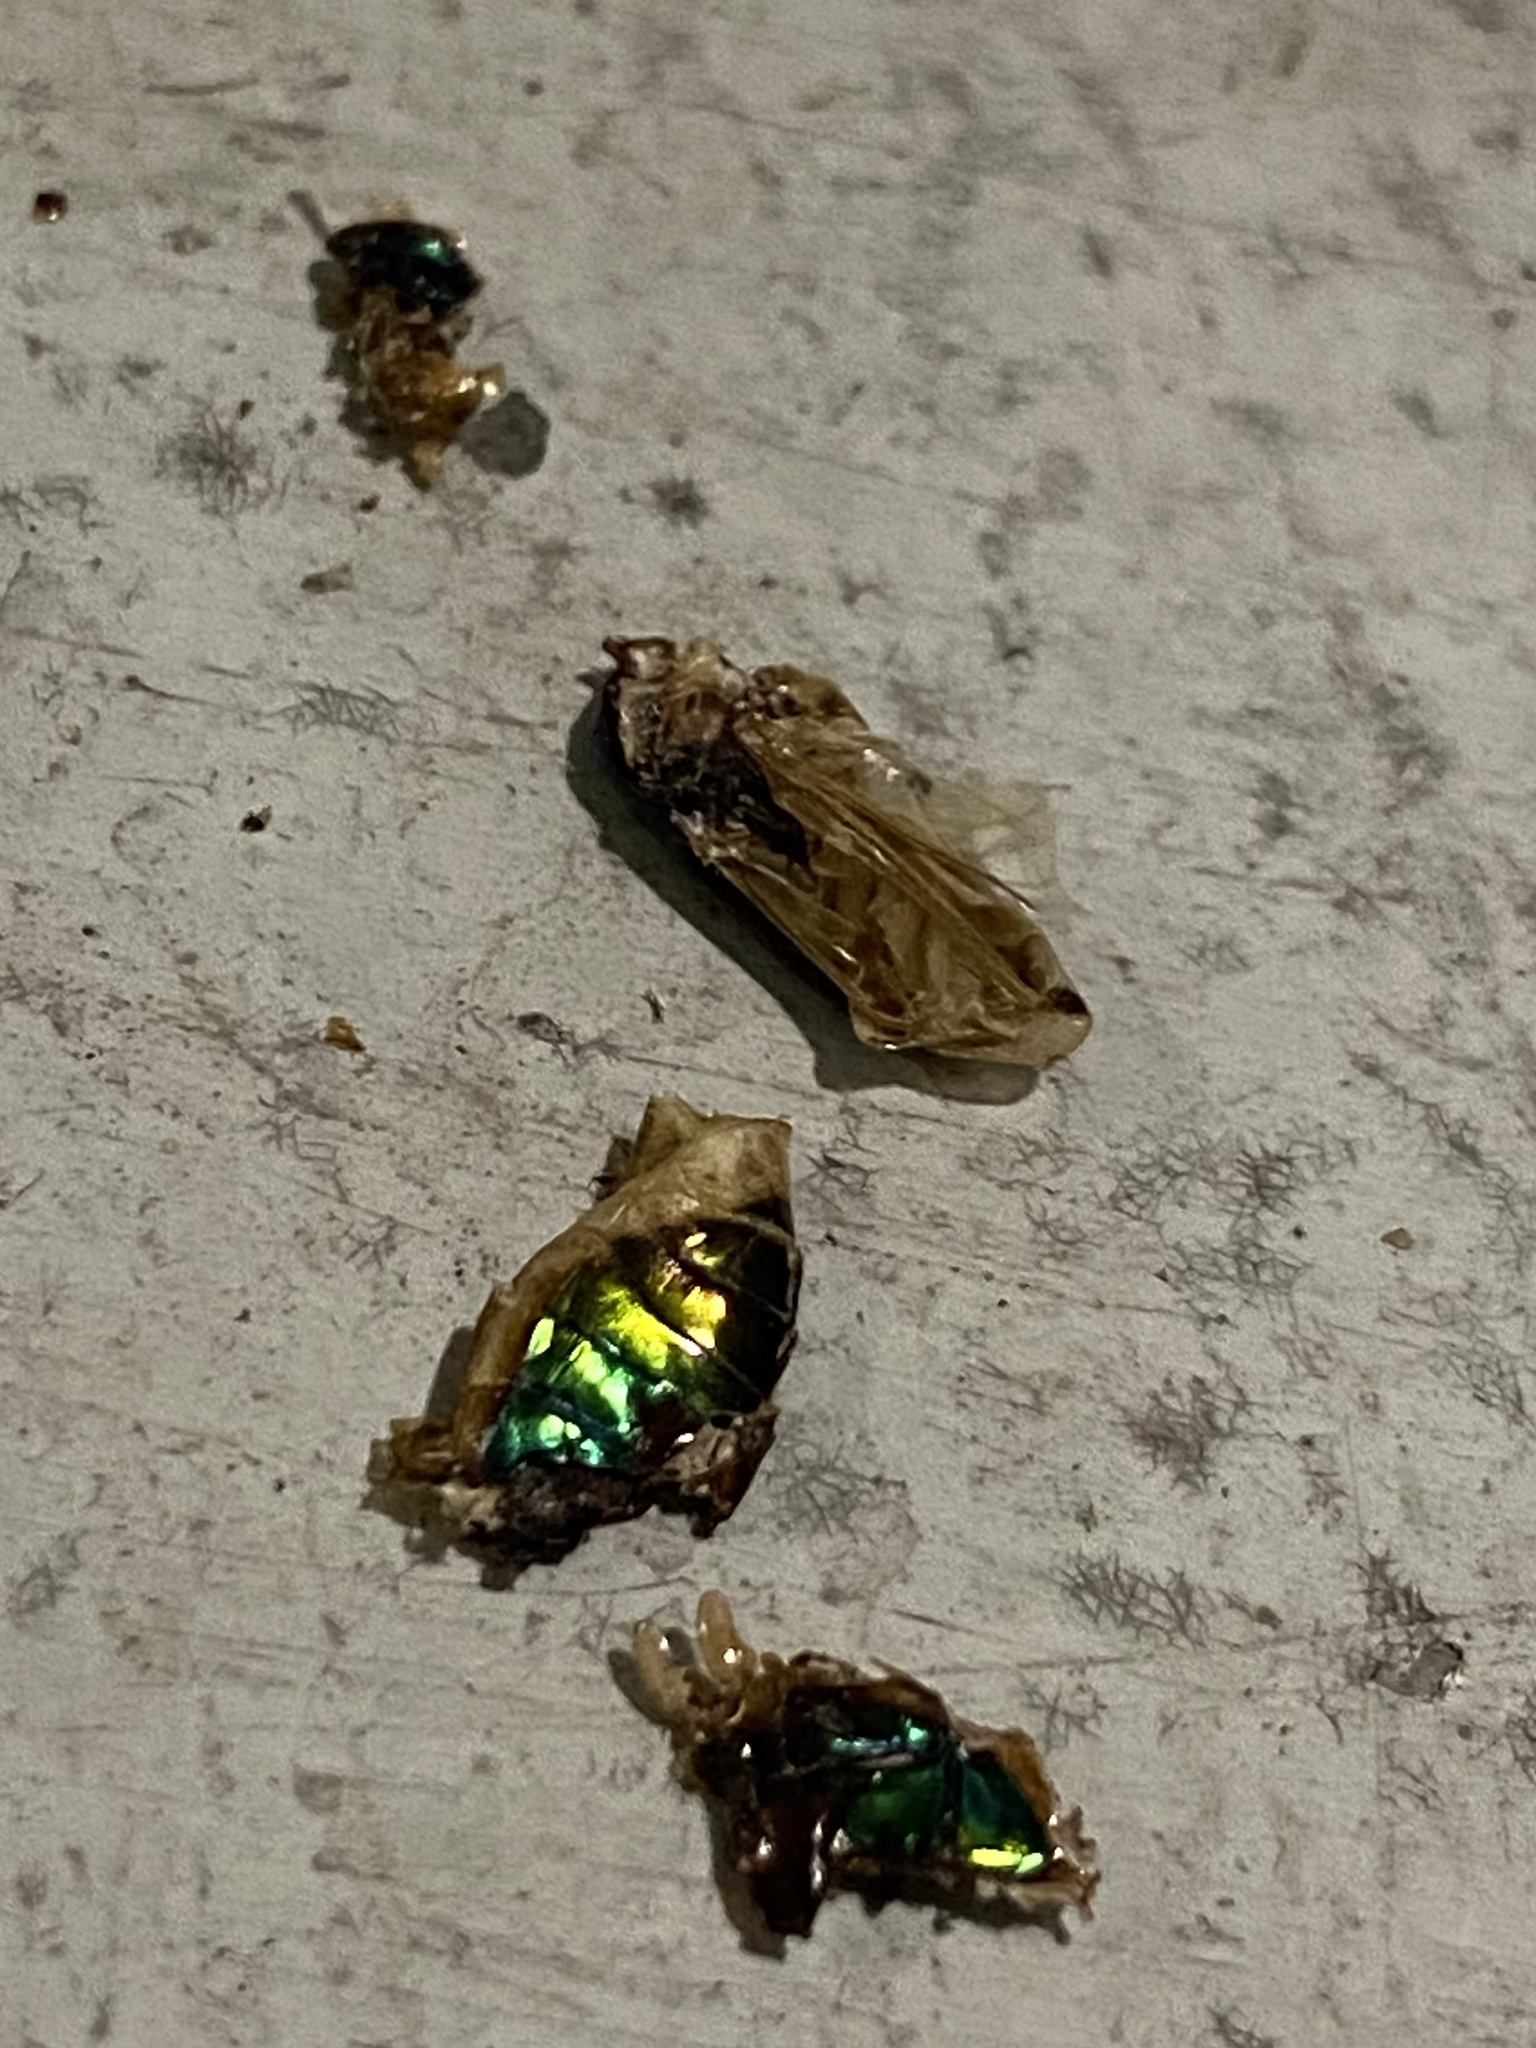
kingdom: Animalia
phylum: Arthropoda
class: Insecta
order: Coleoptera
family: Carabidae
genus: Tetracha
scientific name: Tetracha carolina
